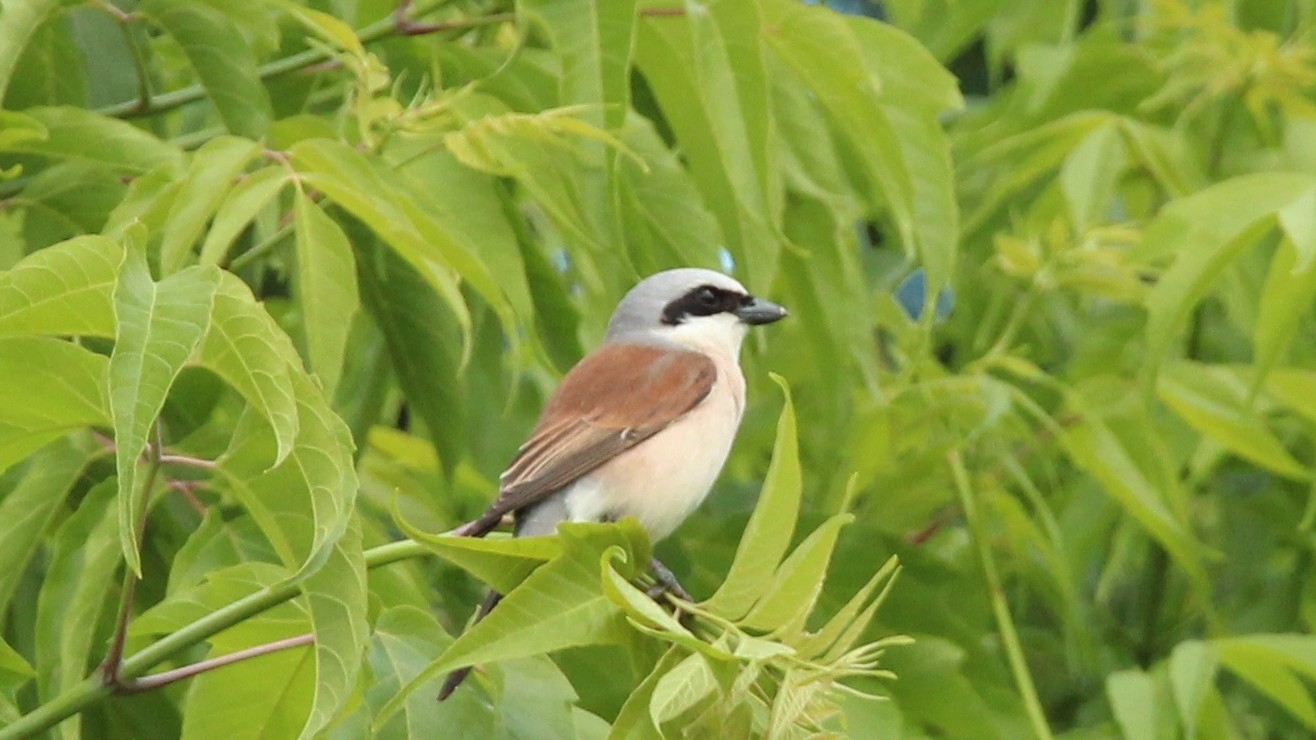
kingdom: Animalia
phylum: Chordata
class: Aves
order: Passeriformes
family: Laniidae
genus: Lanius
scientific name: Lanius collurio
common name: Red-backed shrike
